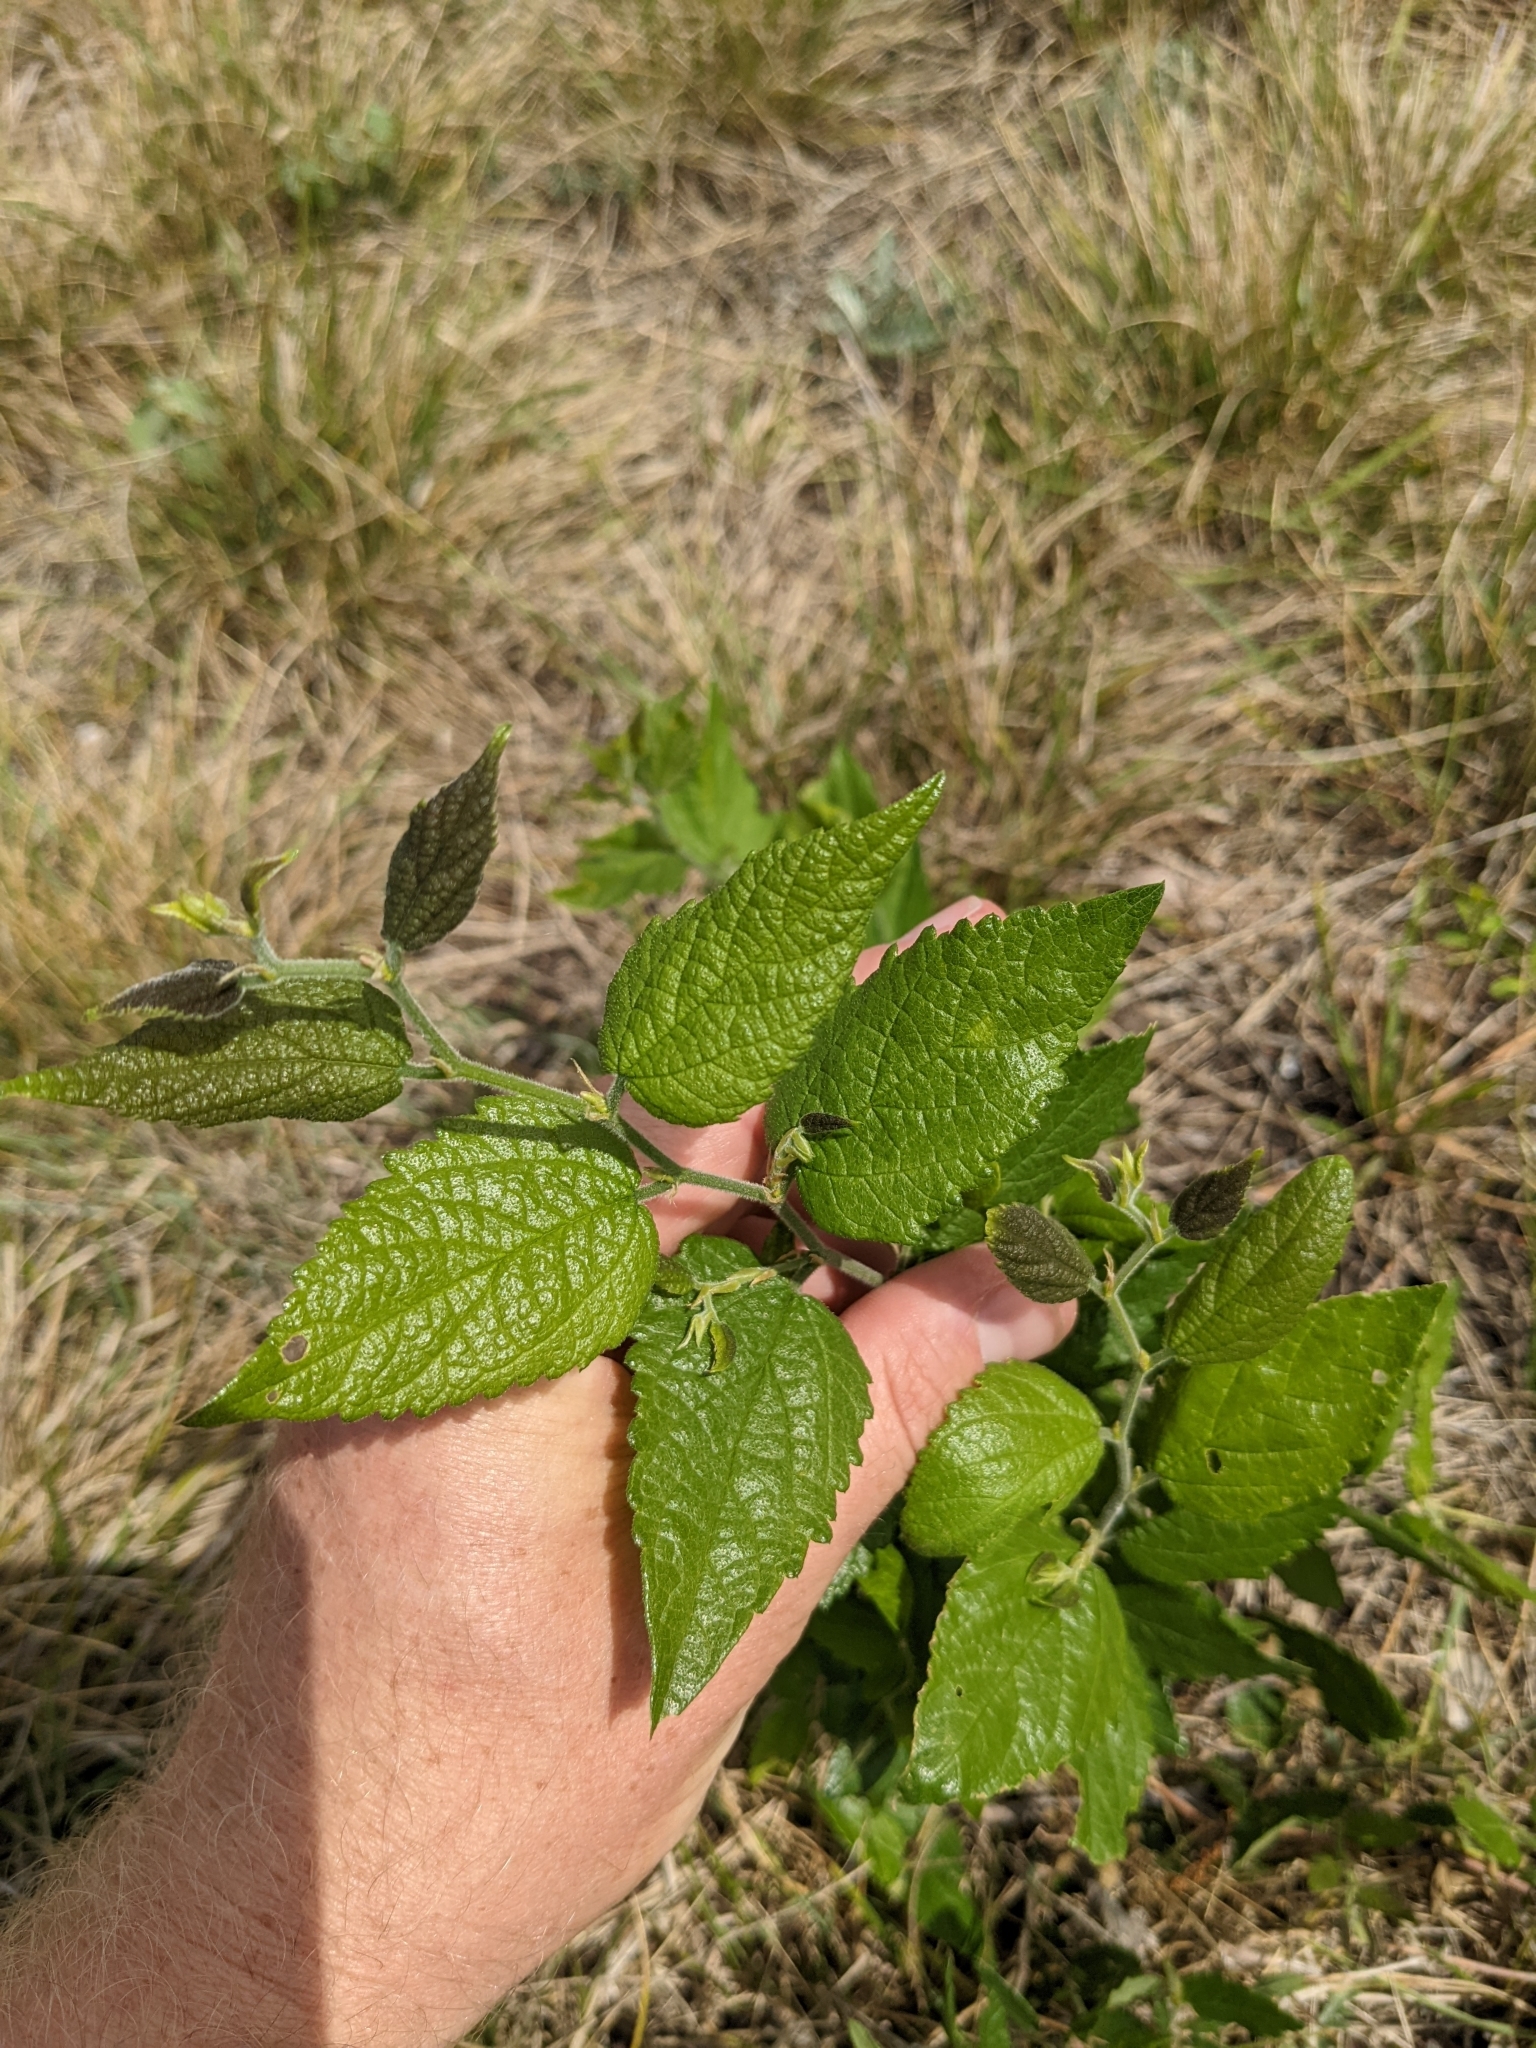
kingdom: Plantae
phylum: Tracheophyta
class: Magnoliopsida
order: Rosales
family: Cannabaceae
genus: Celtis
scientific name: Celtis reticulata
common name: Netleaf hackberry
